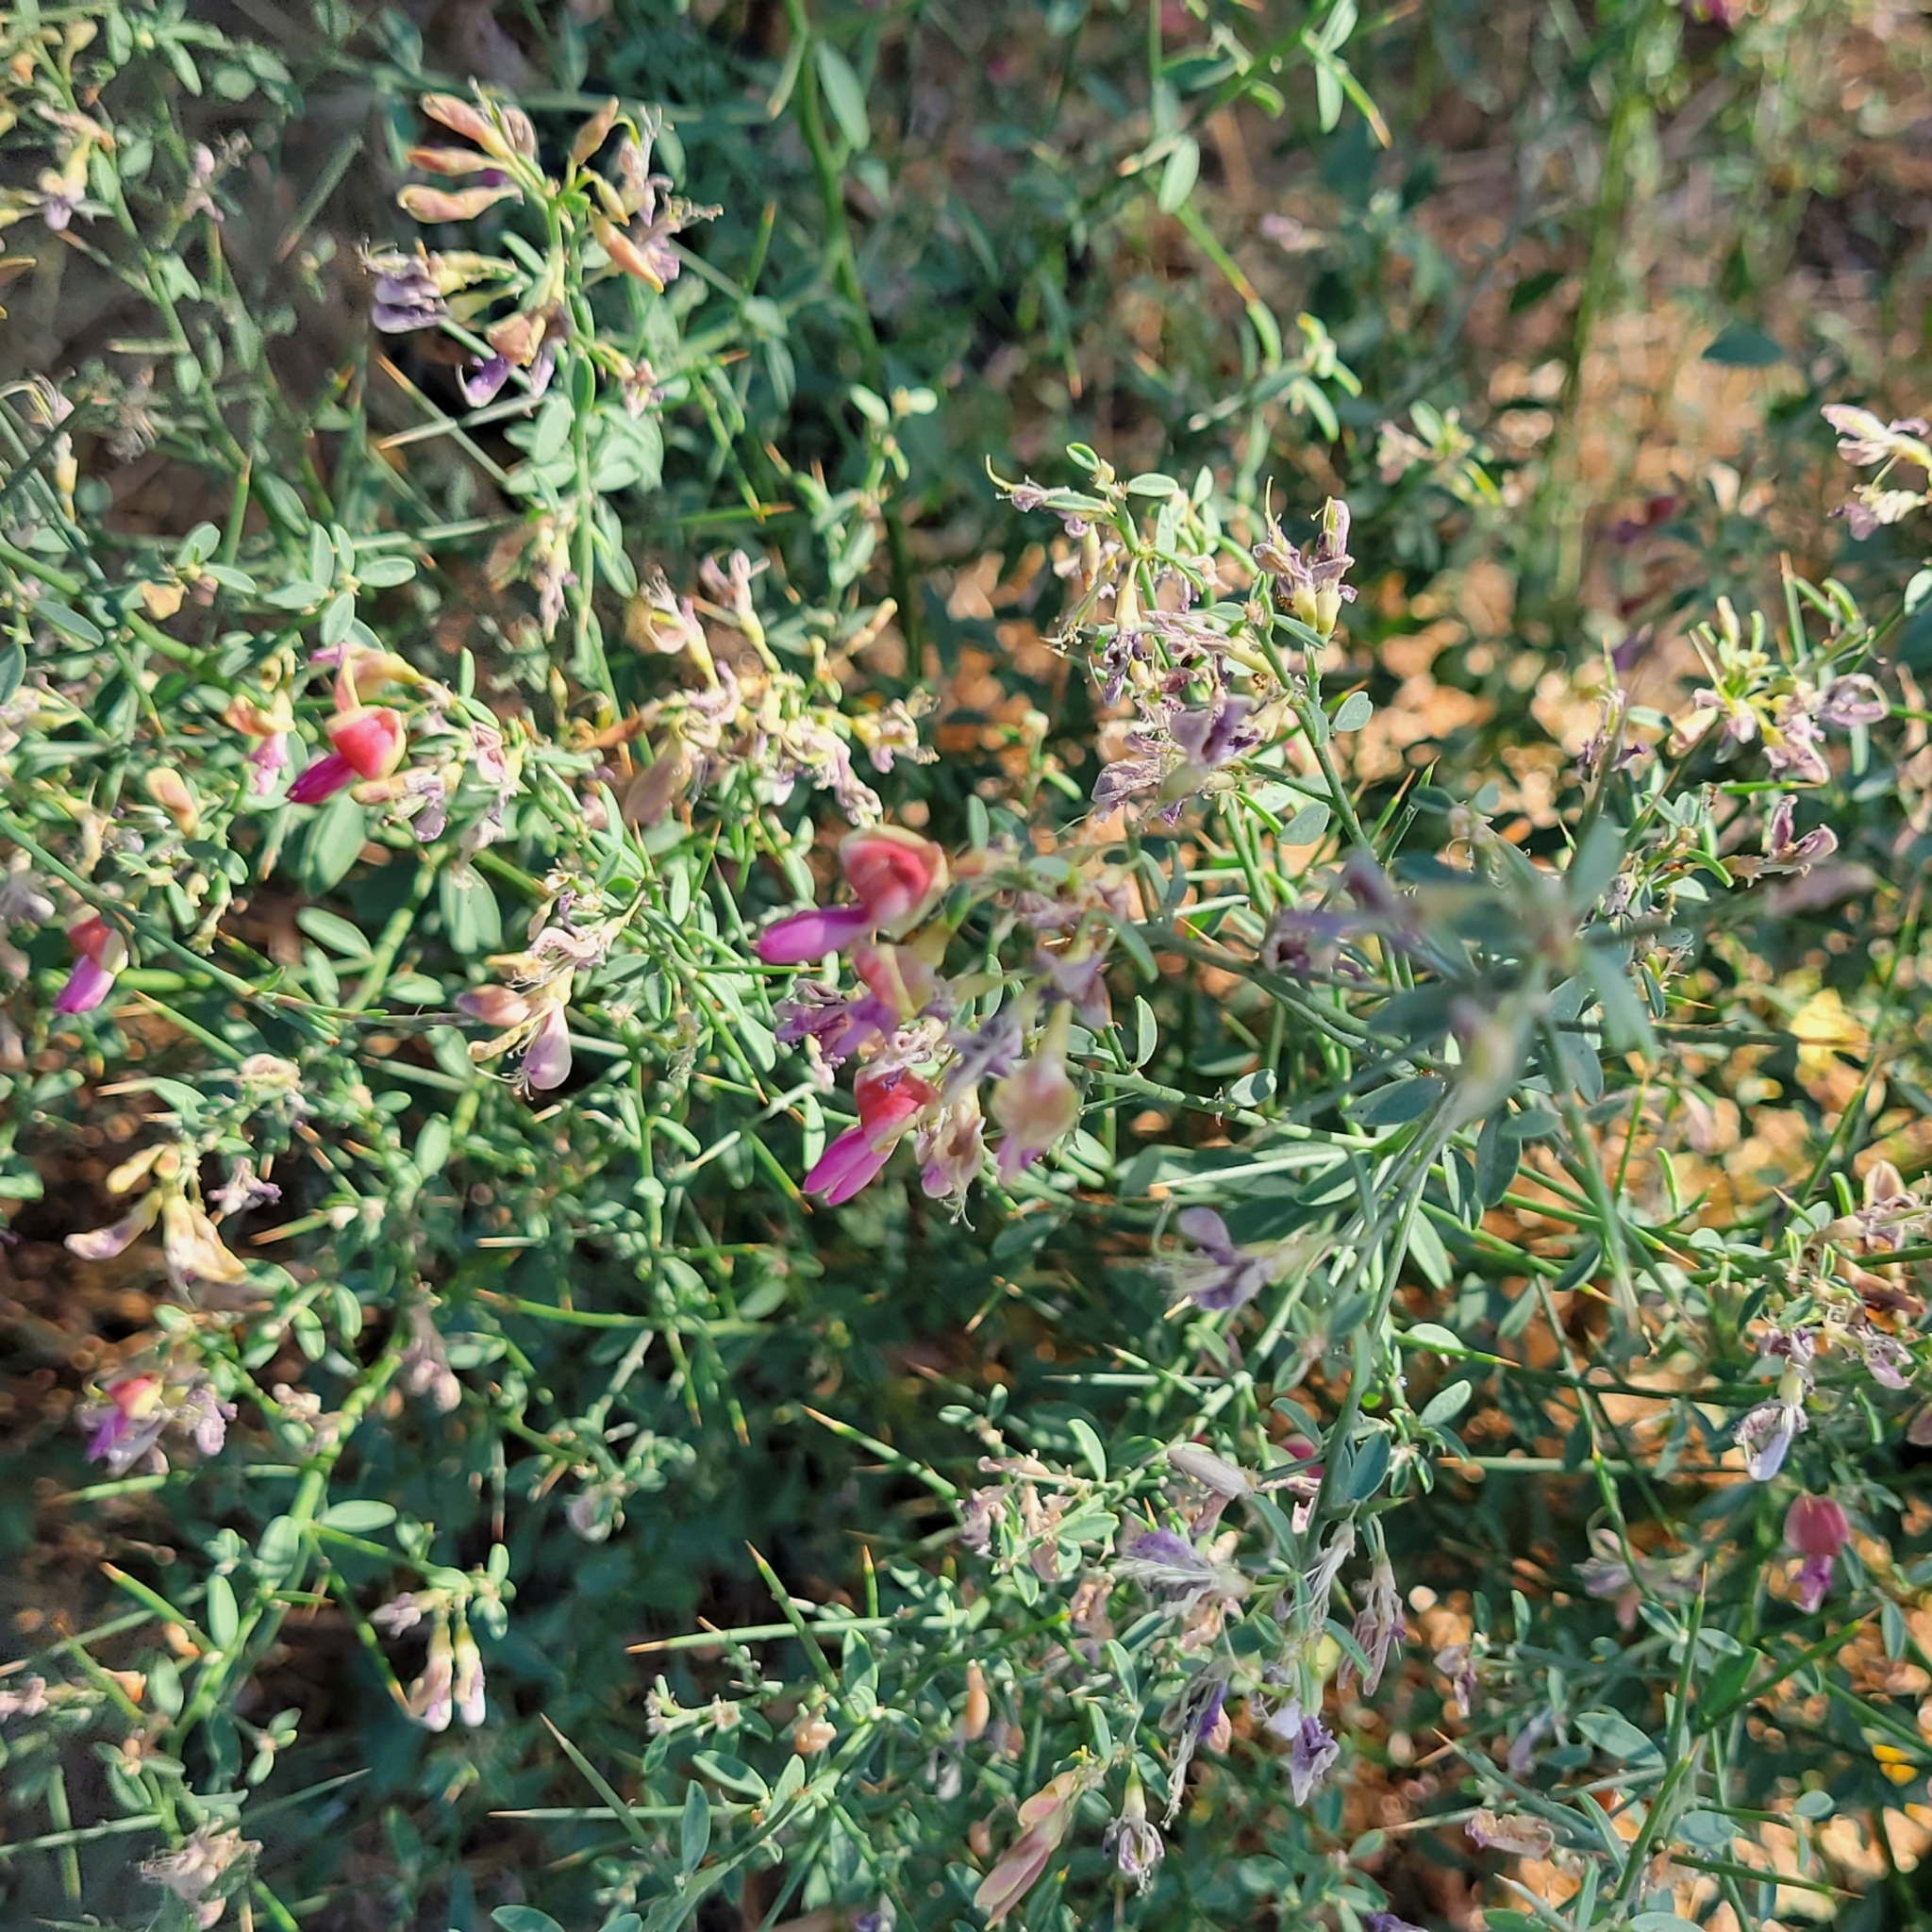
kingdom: Plantae
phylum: Tracheophyta
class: Magnoliopsida
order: Fabales
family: Fabaceae
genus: Alhagi
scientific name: Alhagi graecorum
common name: Persian mannaplant
